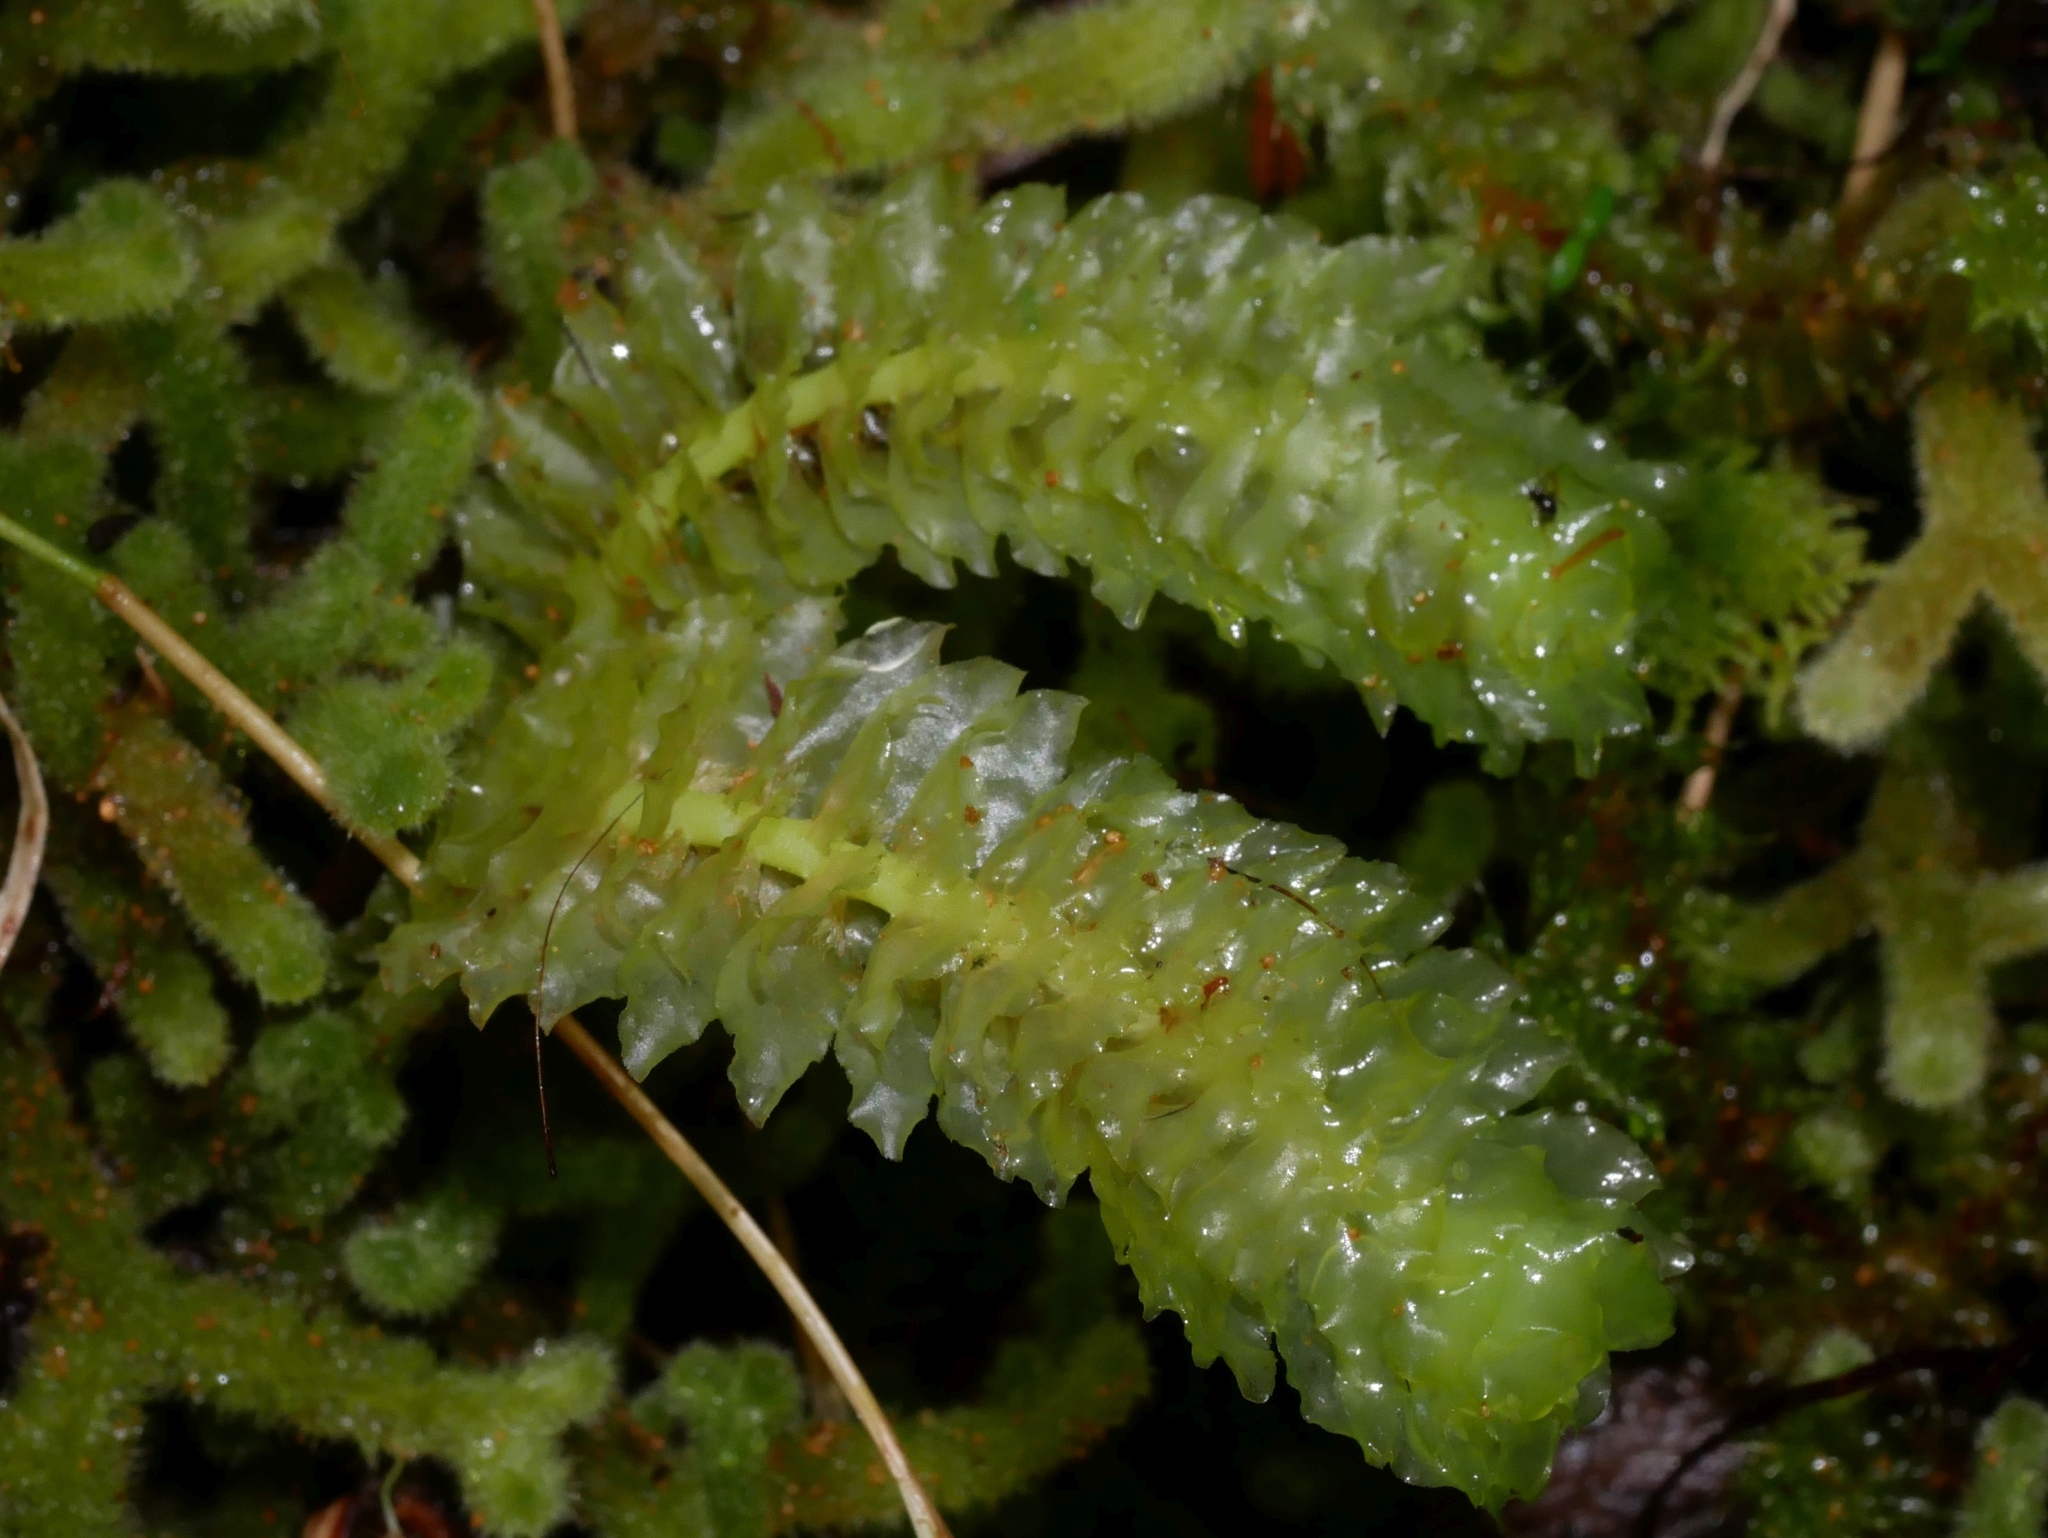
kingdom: Plantae
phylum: Marchantiophyta
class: Jungermanniopsida
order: Jungermanniales
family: Schistochilaceae
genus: Schistochila
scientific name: Schistochila nobilis
